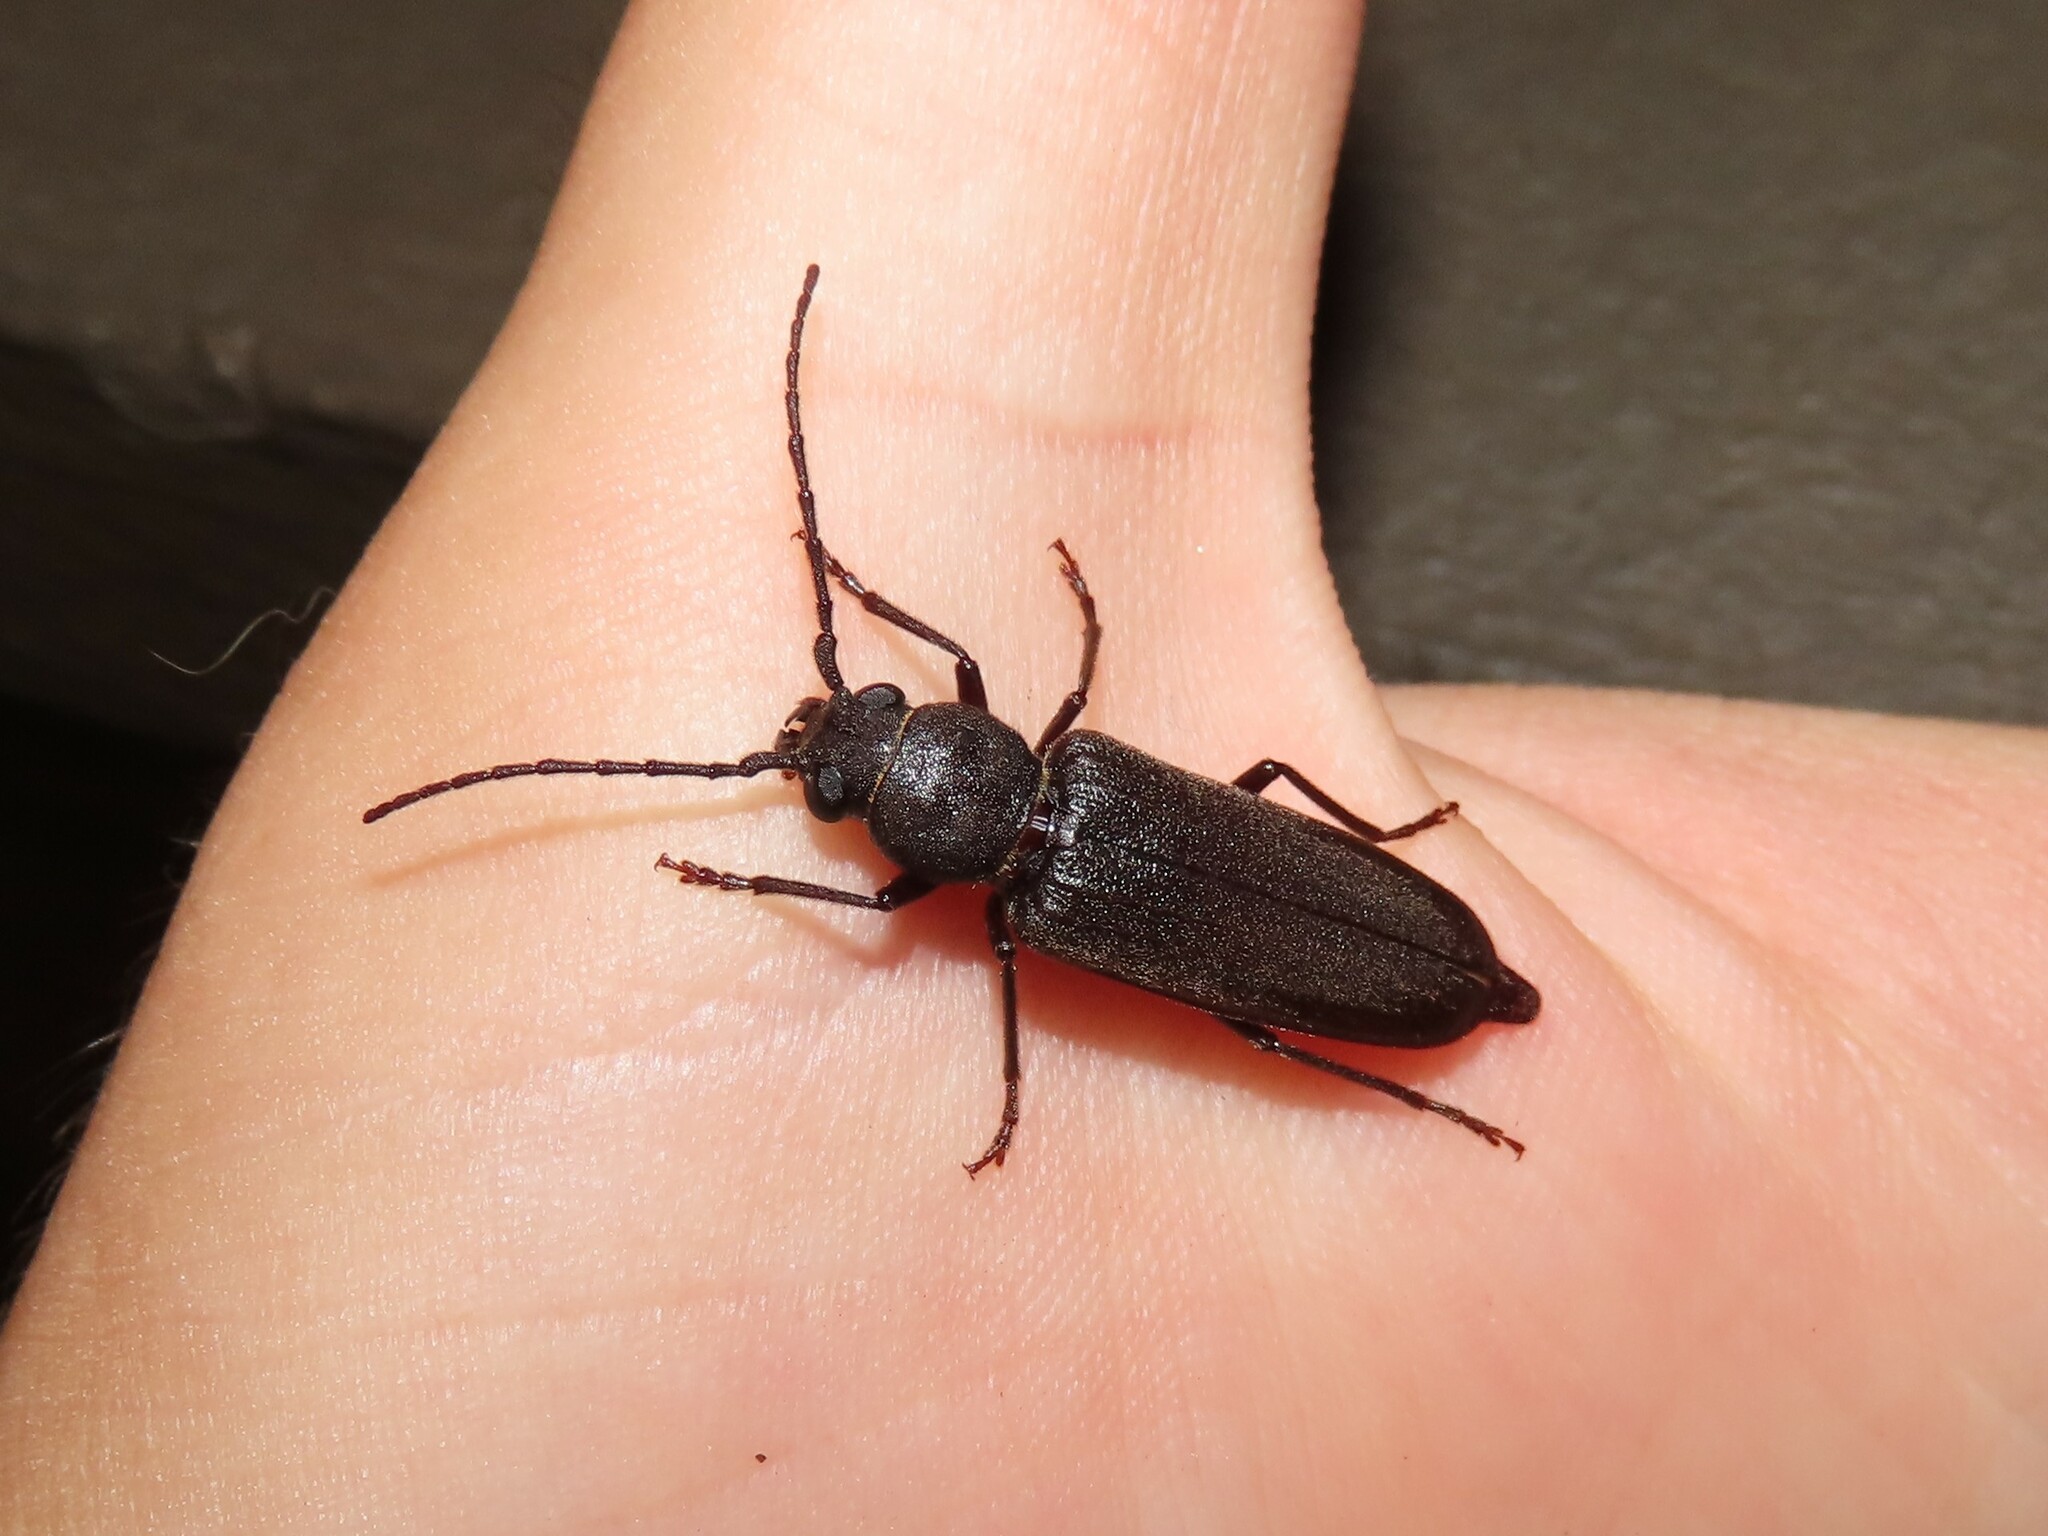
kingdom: Animalia
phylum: Arthropoda
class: Insecta
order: Coleoptera
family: Cerambycidae
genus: Arhopalus
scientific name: Arhopalus rusticus
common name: Rust pine borer
